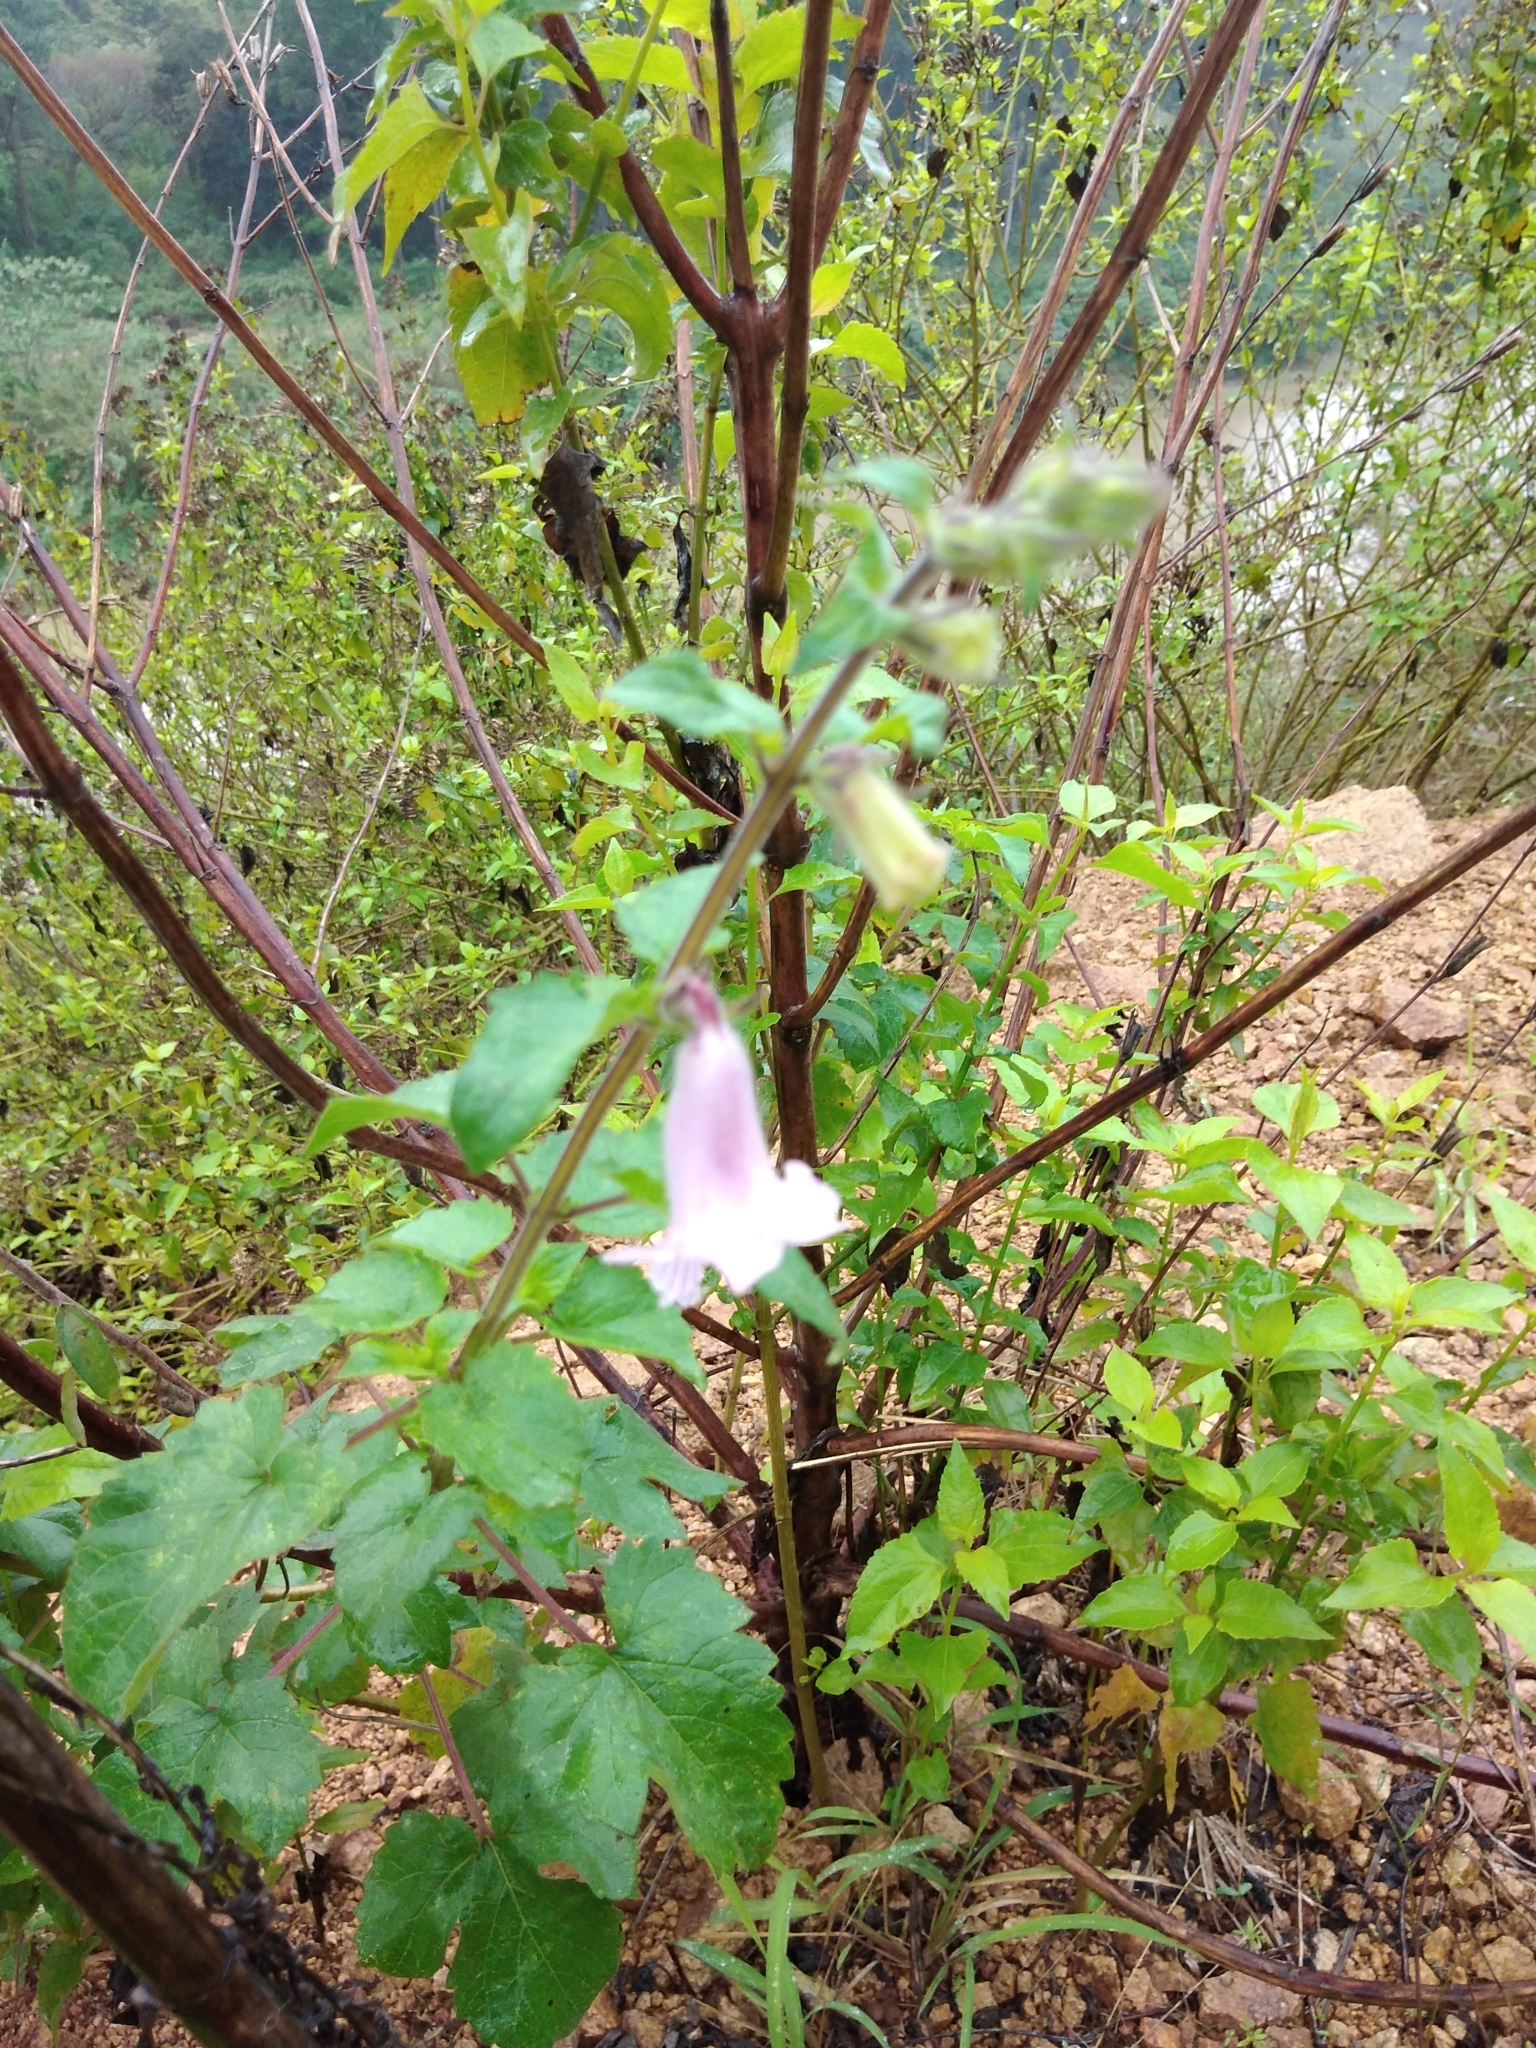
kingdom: Plantae
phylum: Tracheophyta
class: Magnoliopsida
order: Lamiales
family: Pedaliaceae
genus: Sesamum
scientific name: Sesamum trilobum
